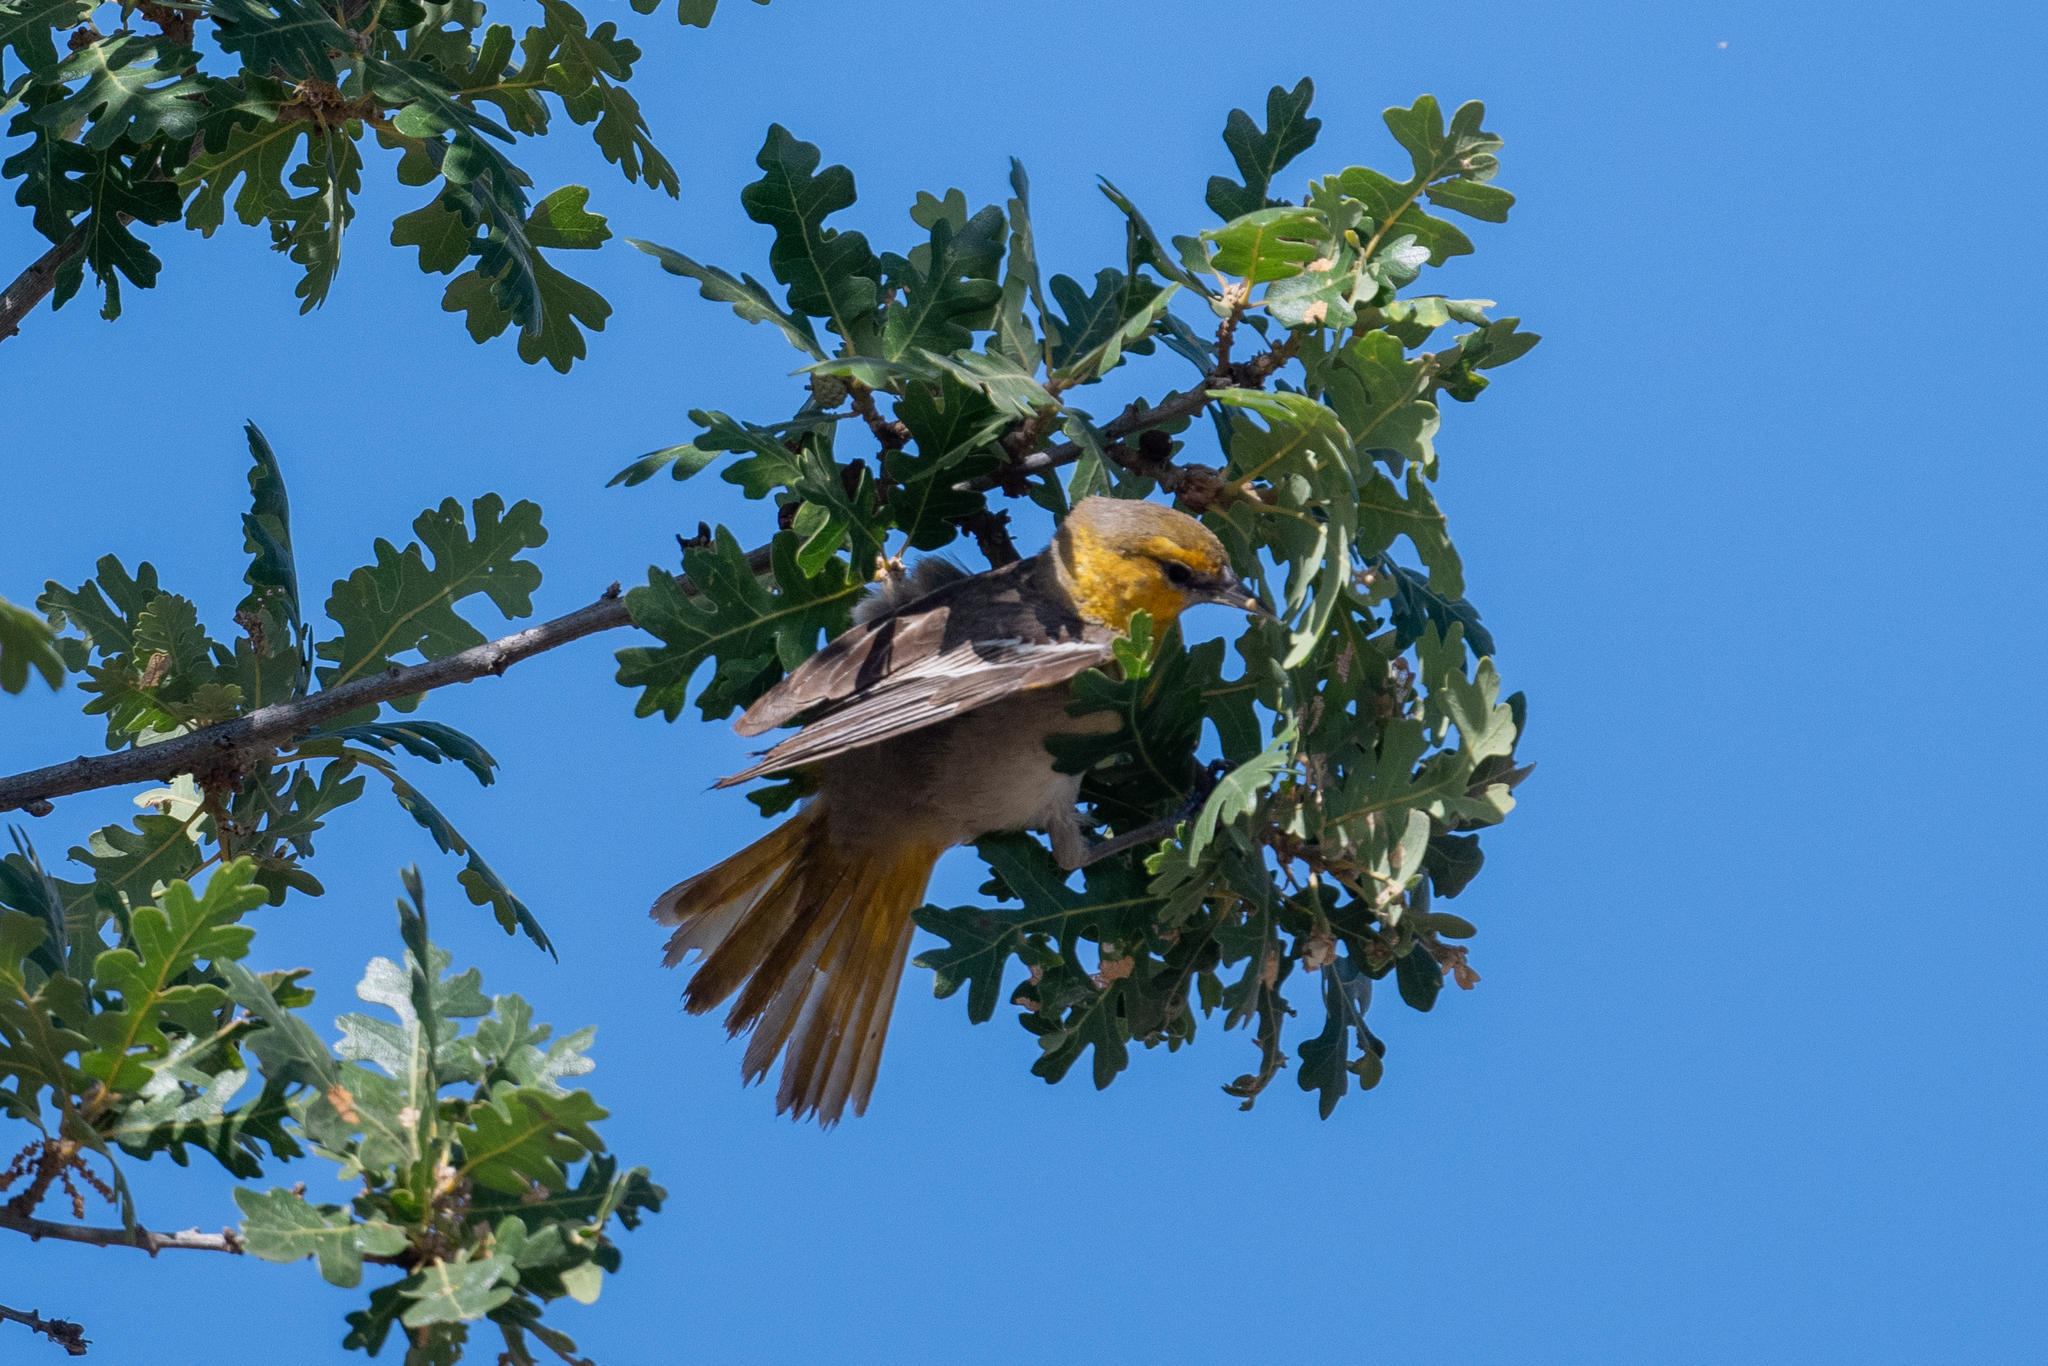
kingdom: Animalia
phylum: Chordata
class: Aves
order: Passeriformes
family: Icteridae
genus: Icterus
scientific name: Icterus bullockii
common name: Bullock's oriole
